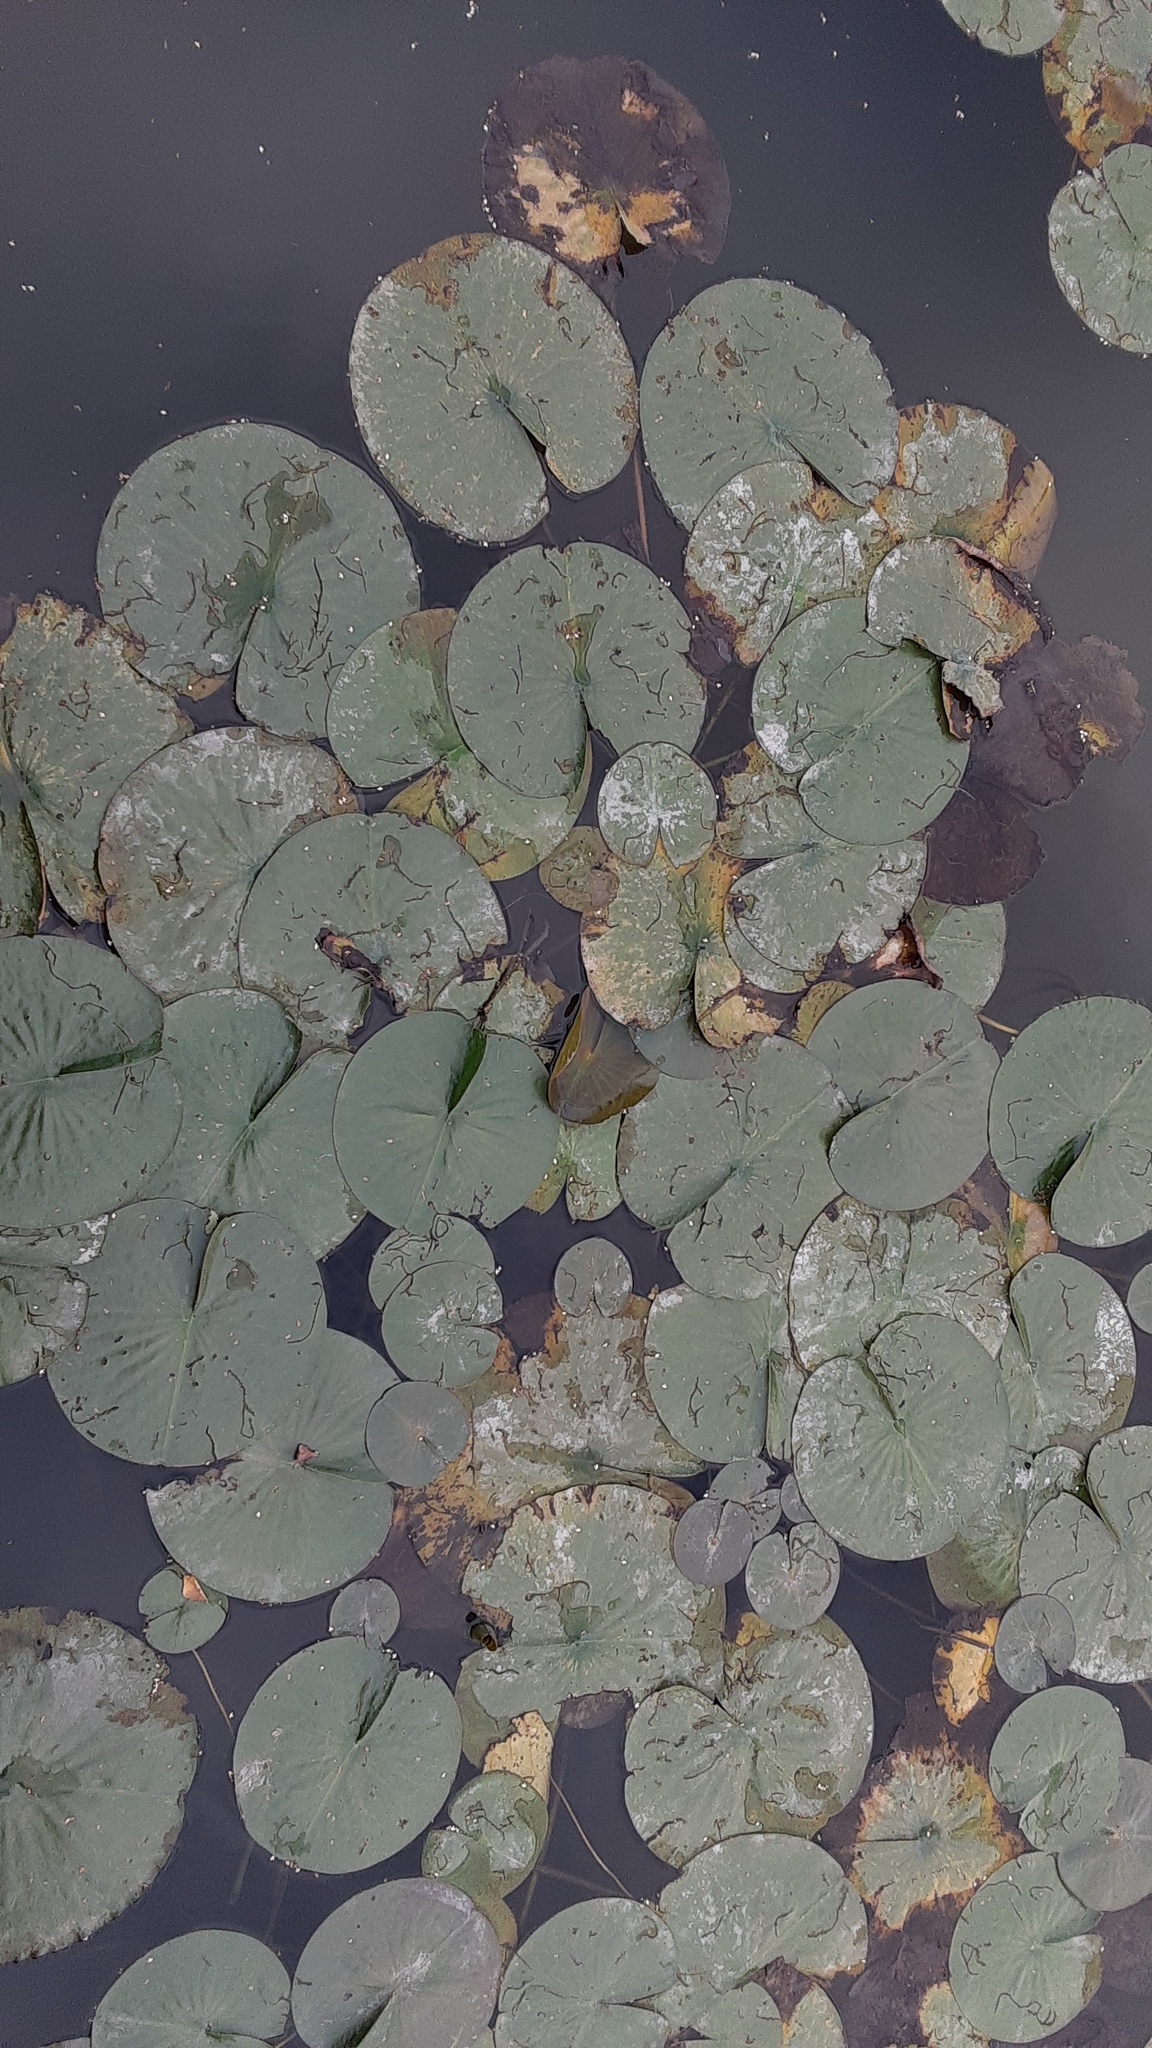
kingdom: Plantae
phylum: Tracheophyta
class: Magnoliopsida
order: Nymphaeales
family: Nymphaeaceae
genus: Nymphaea
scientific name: Nymphaea odorata
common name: Fragrant water-lily
